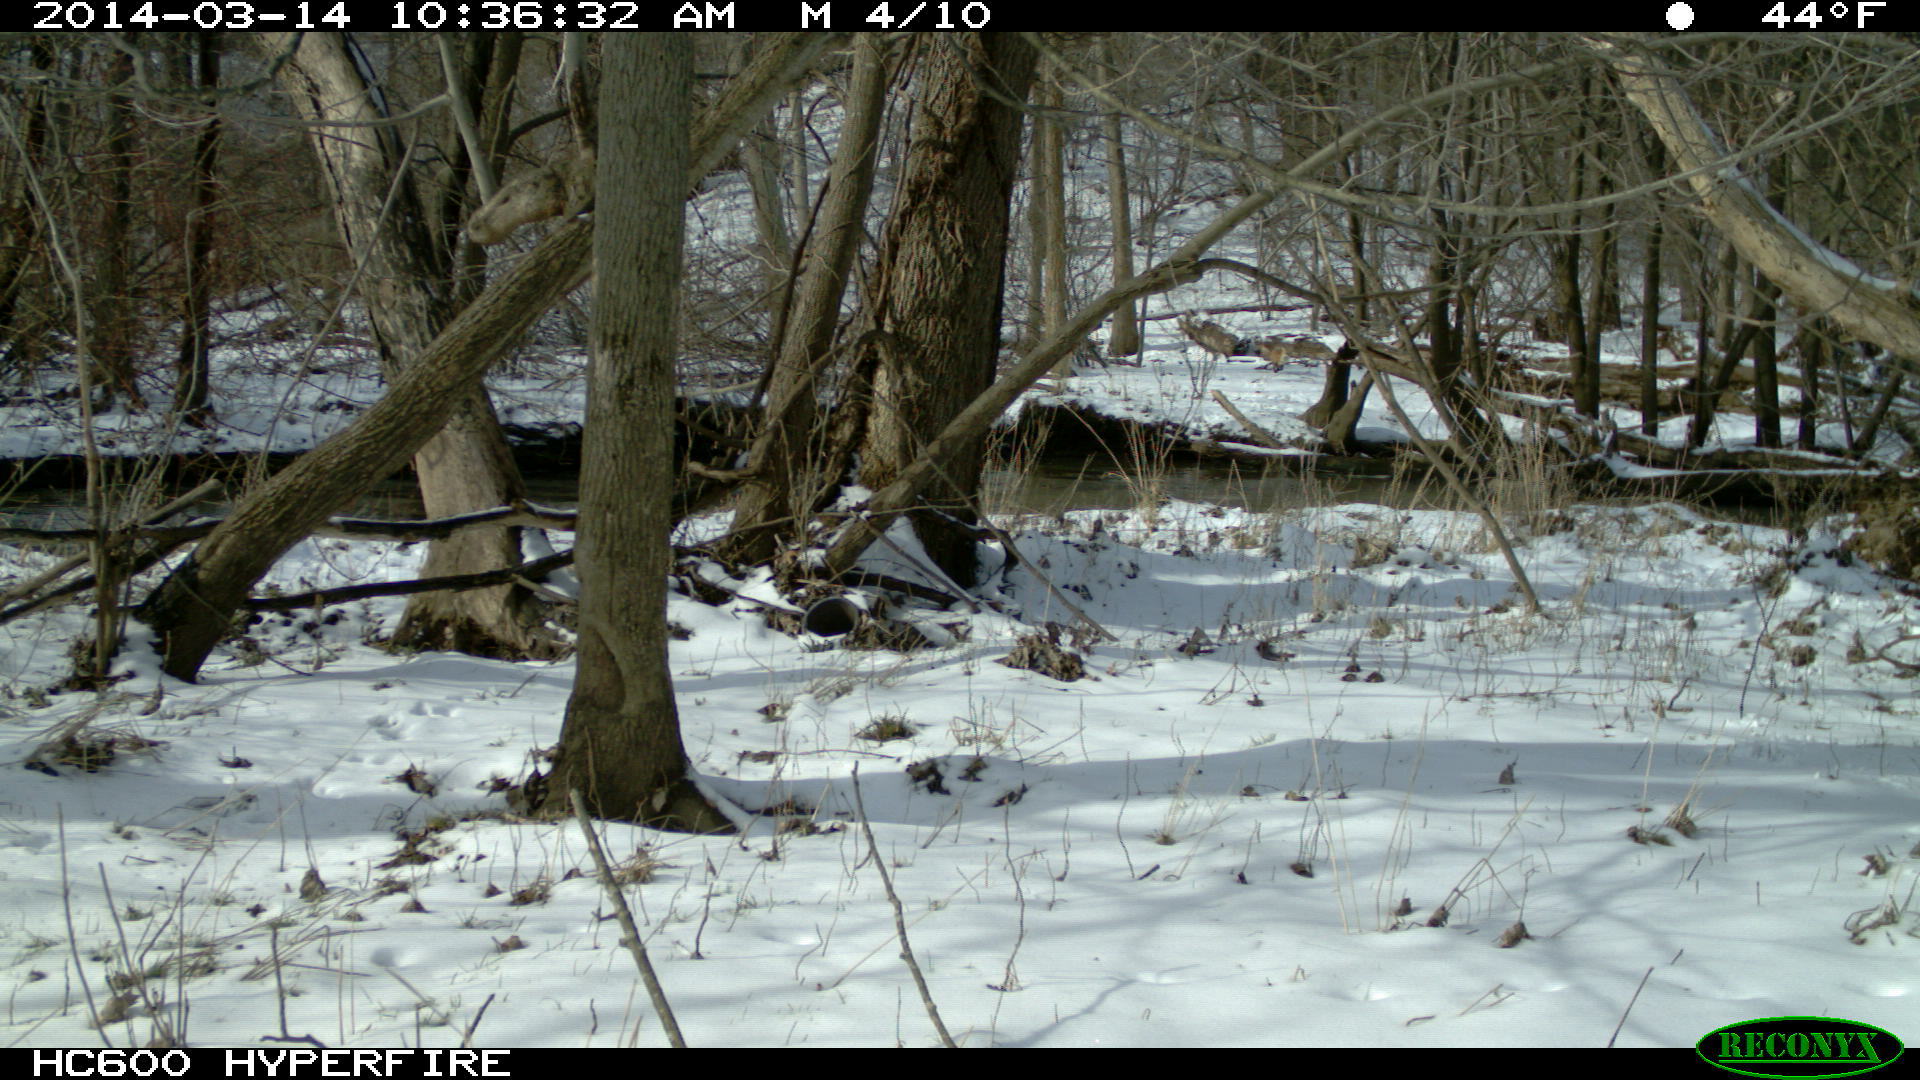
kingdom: Animalia
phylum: Chordata
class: Mammalia
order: Carnivora
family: Canidae
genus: Vulpes
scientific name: Vulpes vulpes
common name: Red fox
